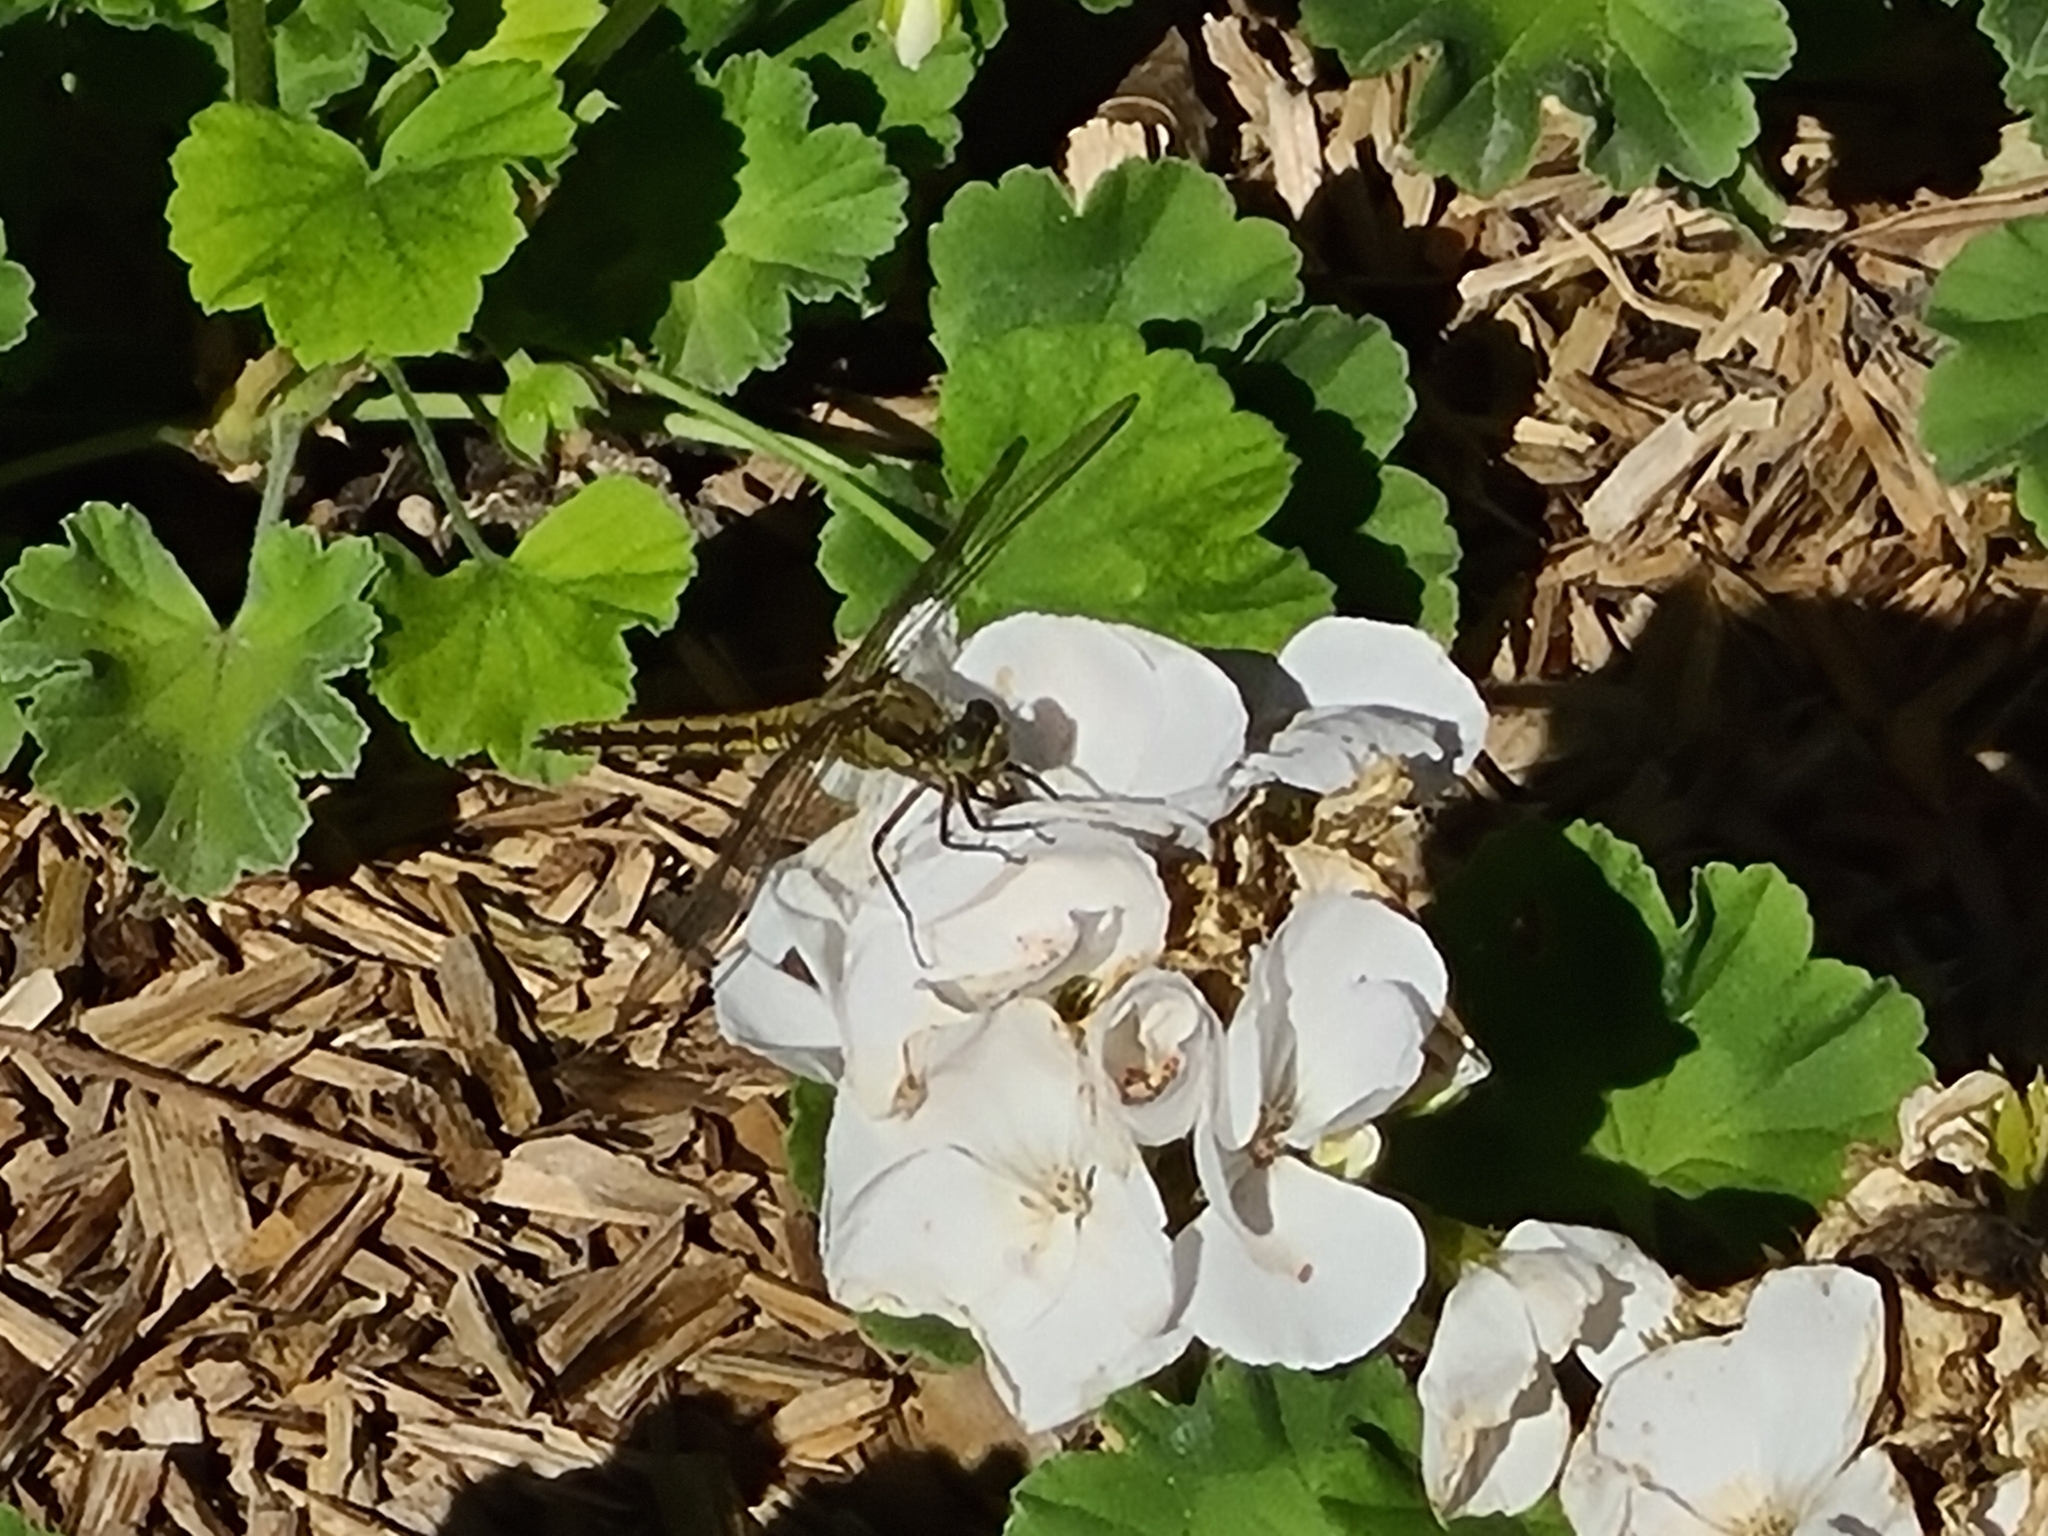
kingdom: Animalia
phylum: Arthropoda
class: Insecta
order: Odonata
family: Libellulidae
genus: Orthetrum
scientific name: Orthetrum cancellatum
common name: Black-tailed skimmer
